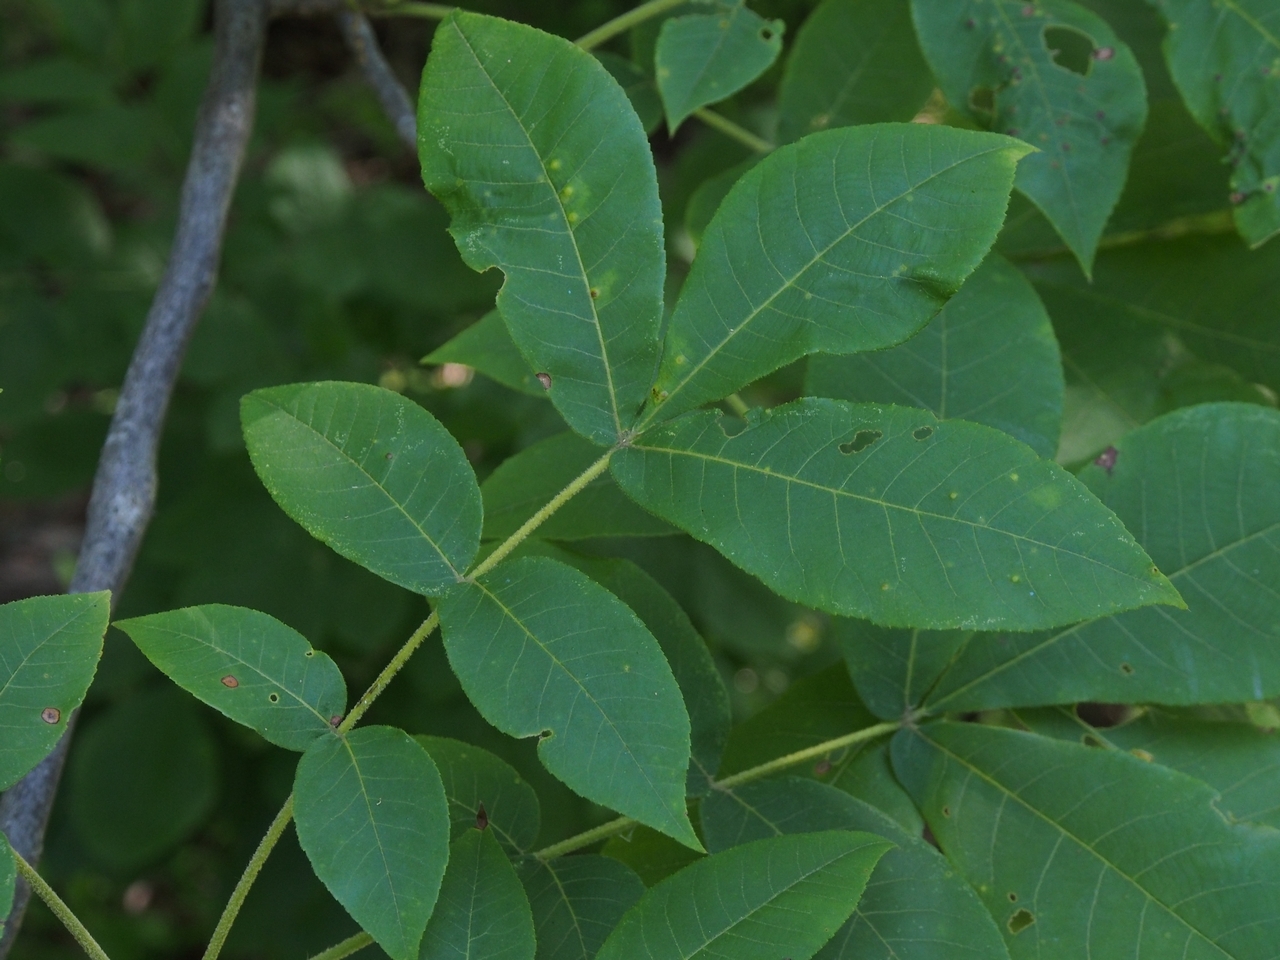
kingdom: Plantae
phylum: Tracheophyta
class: Magnoliopsida
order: Fagales
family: Juglandaceae
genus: Carya
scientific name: Carya alba
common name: Mockernut hickory
